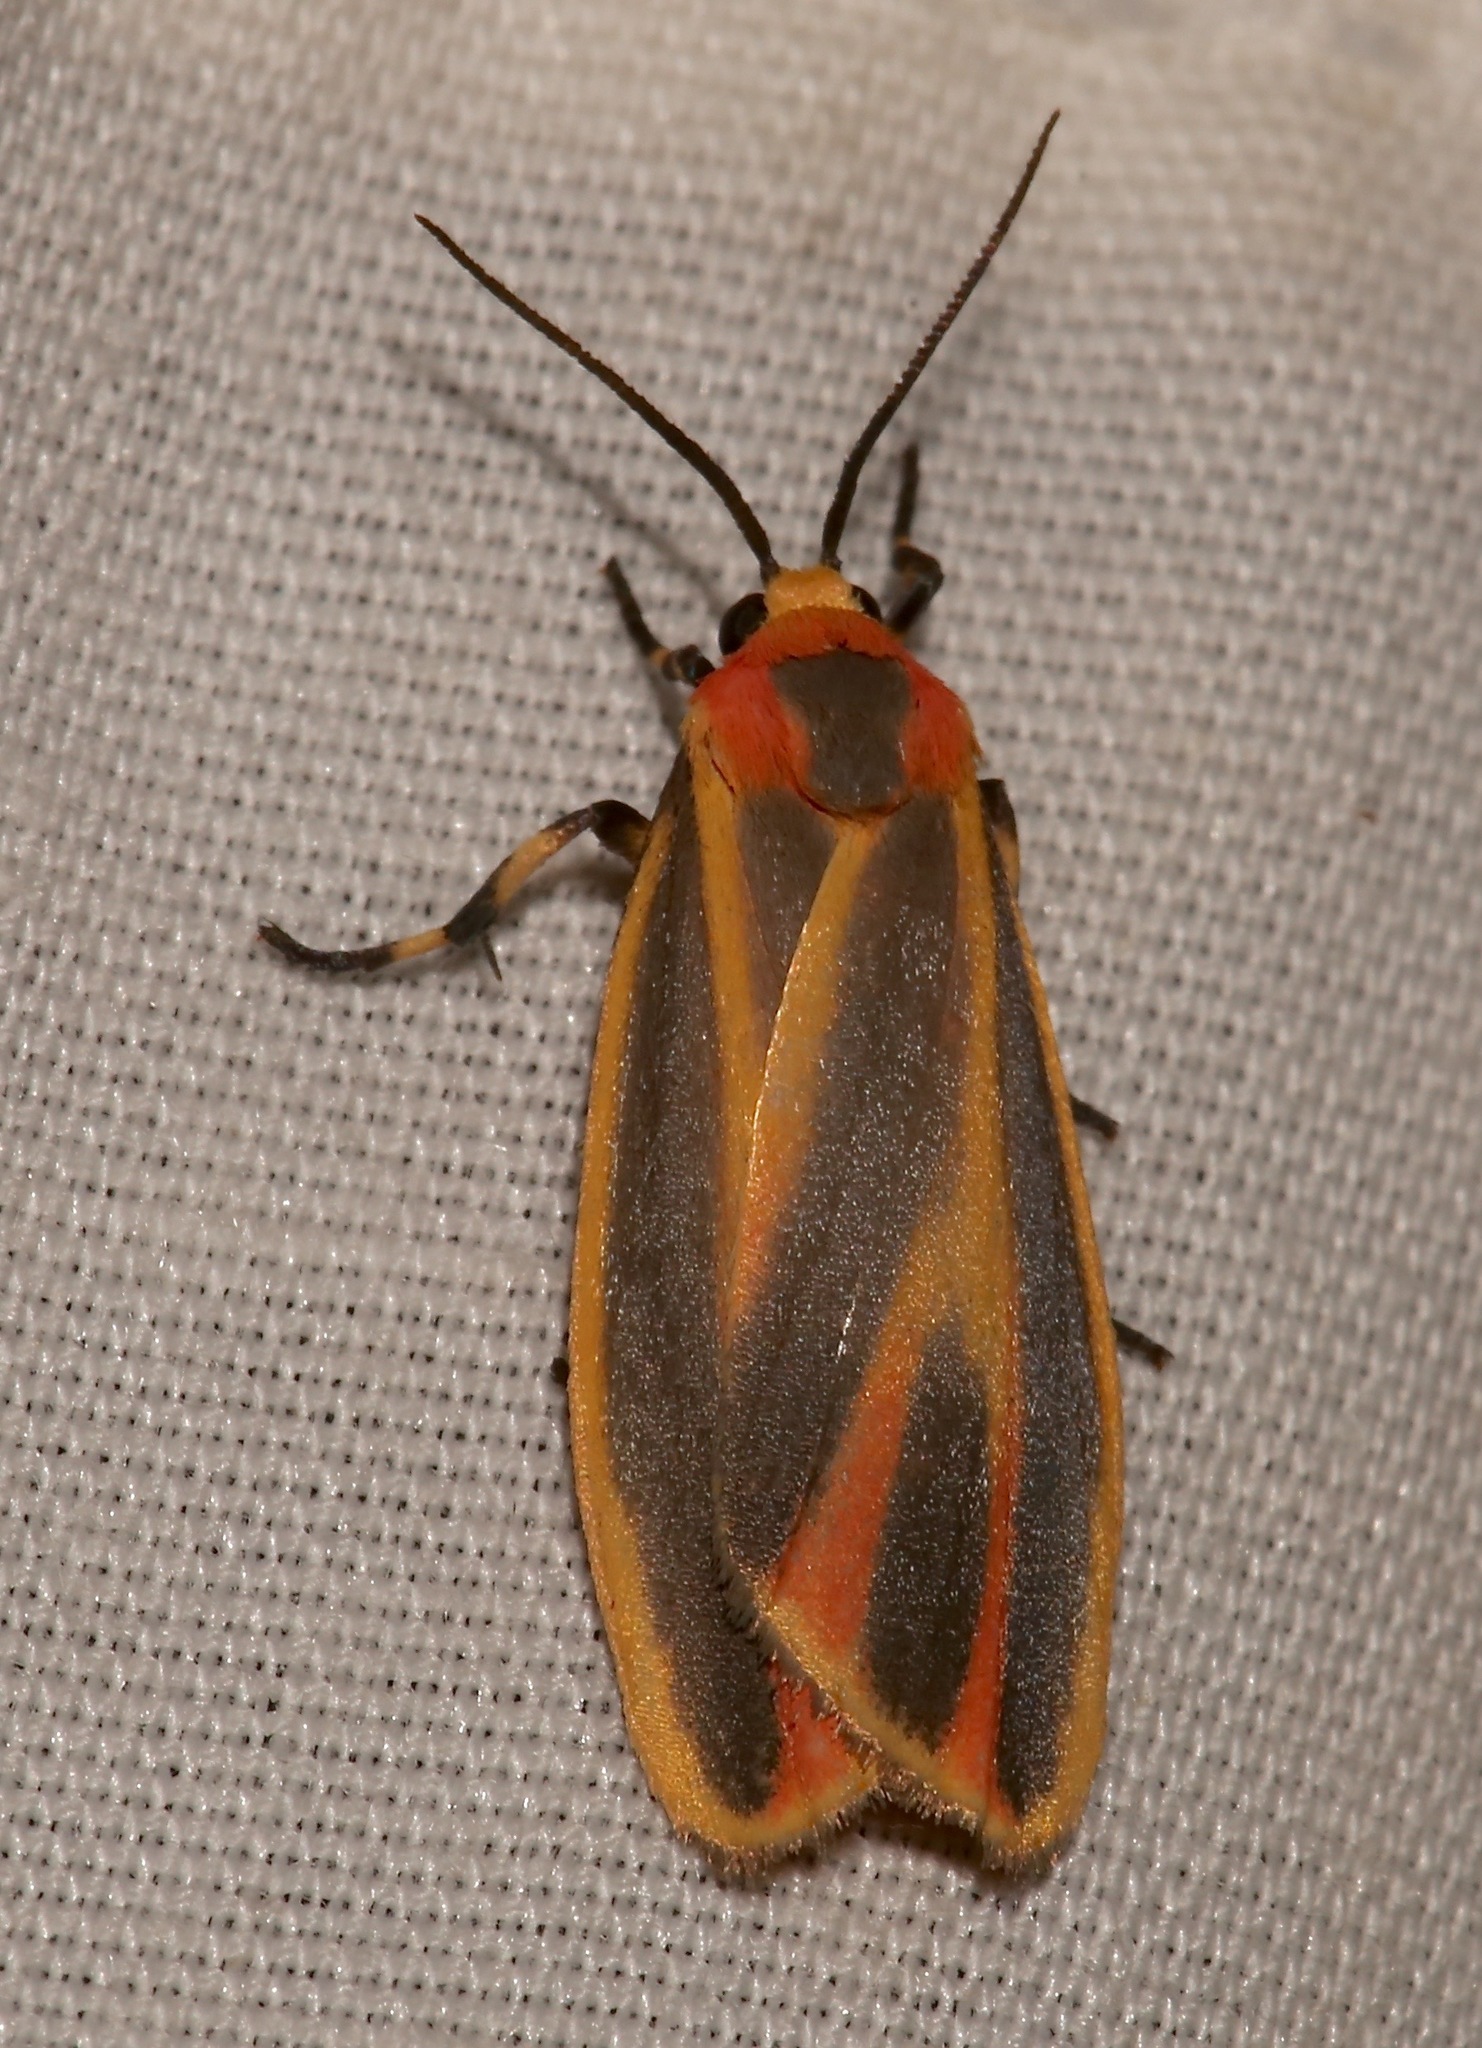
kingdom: Animalia
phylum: Arthropoda
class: Insecta
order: Lepidoptera
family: Erebidae
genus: Hypoprepia
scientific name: Hypoprepia fucosa
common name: Painted lichen moth
